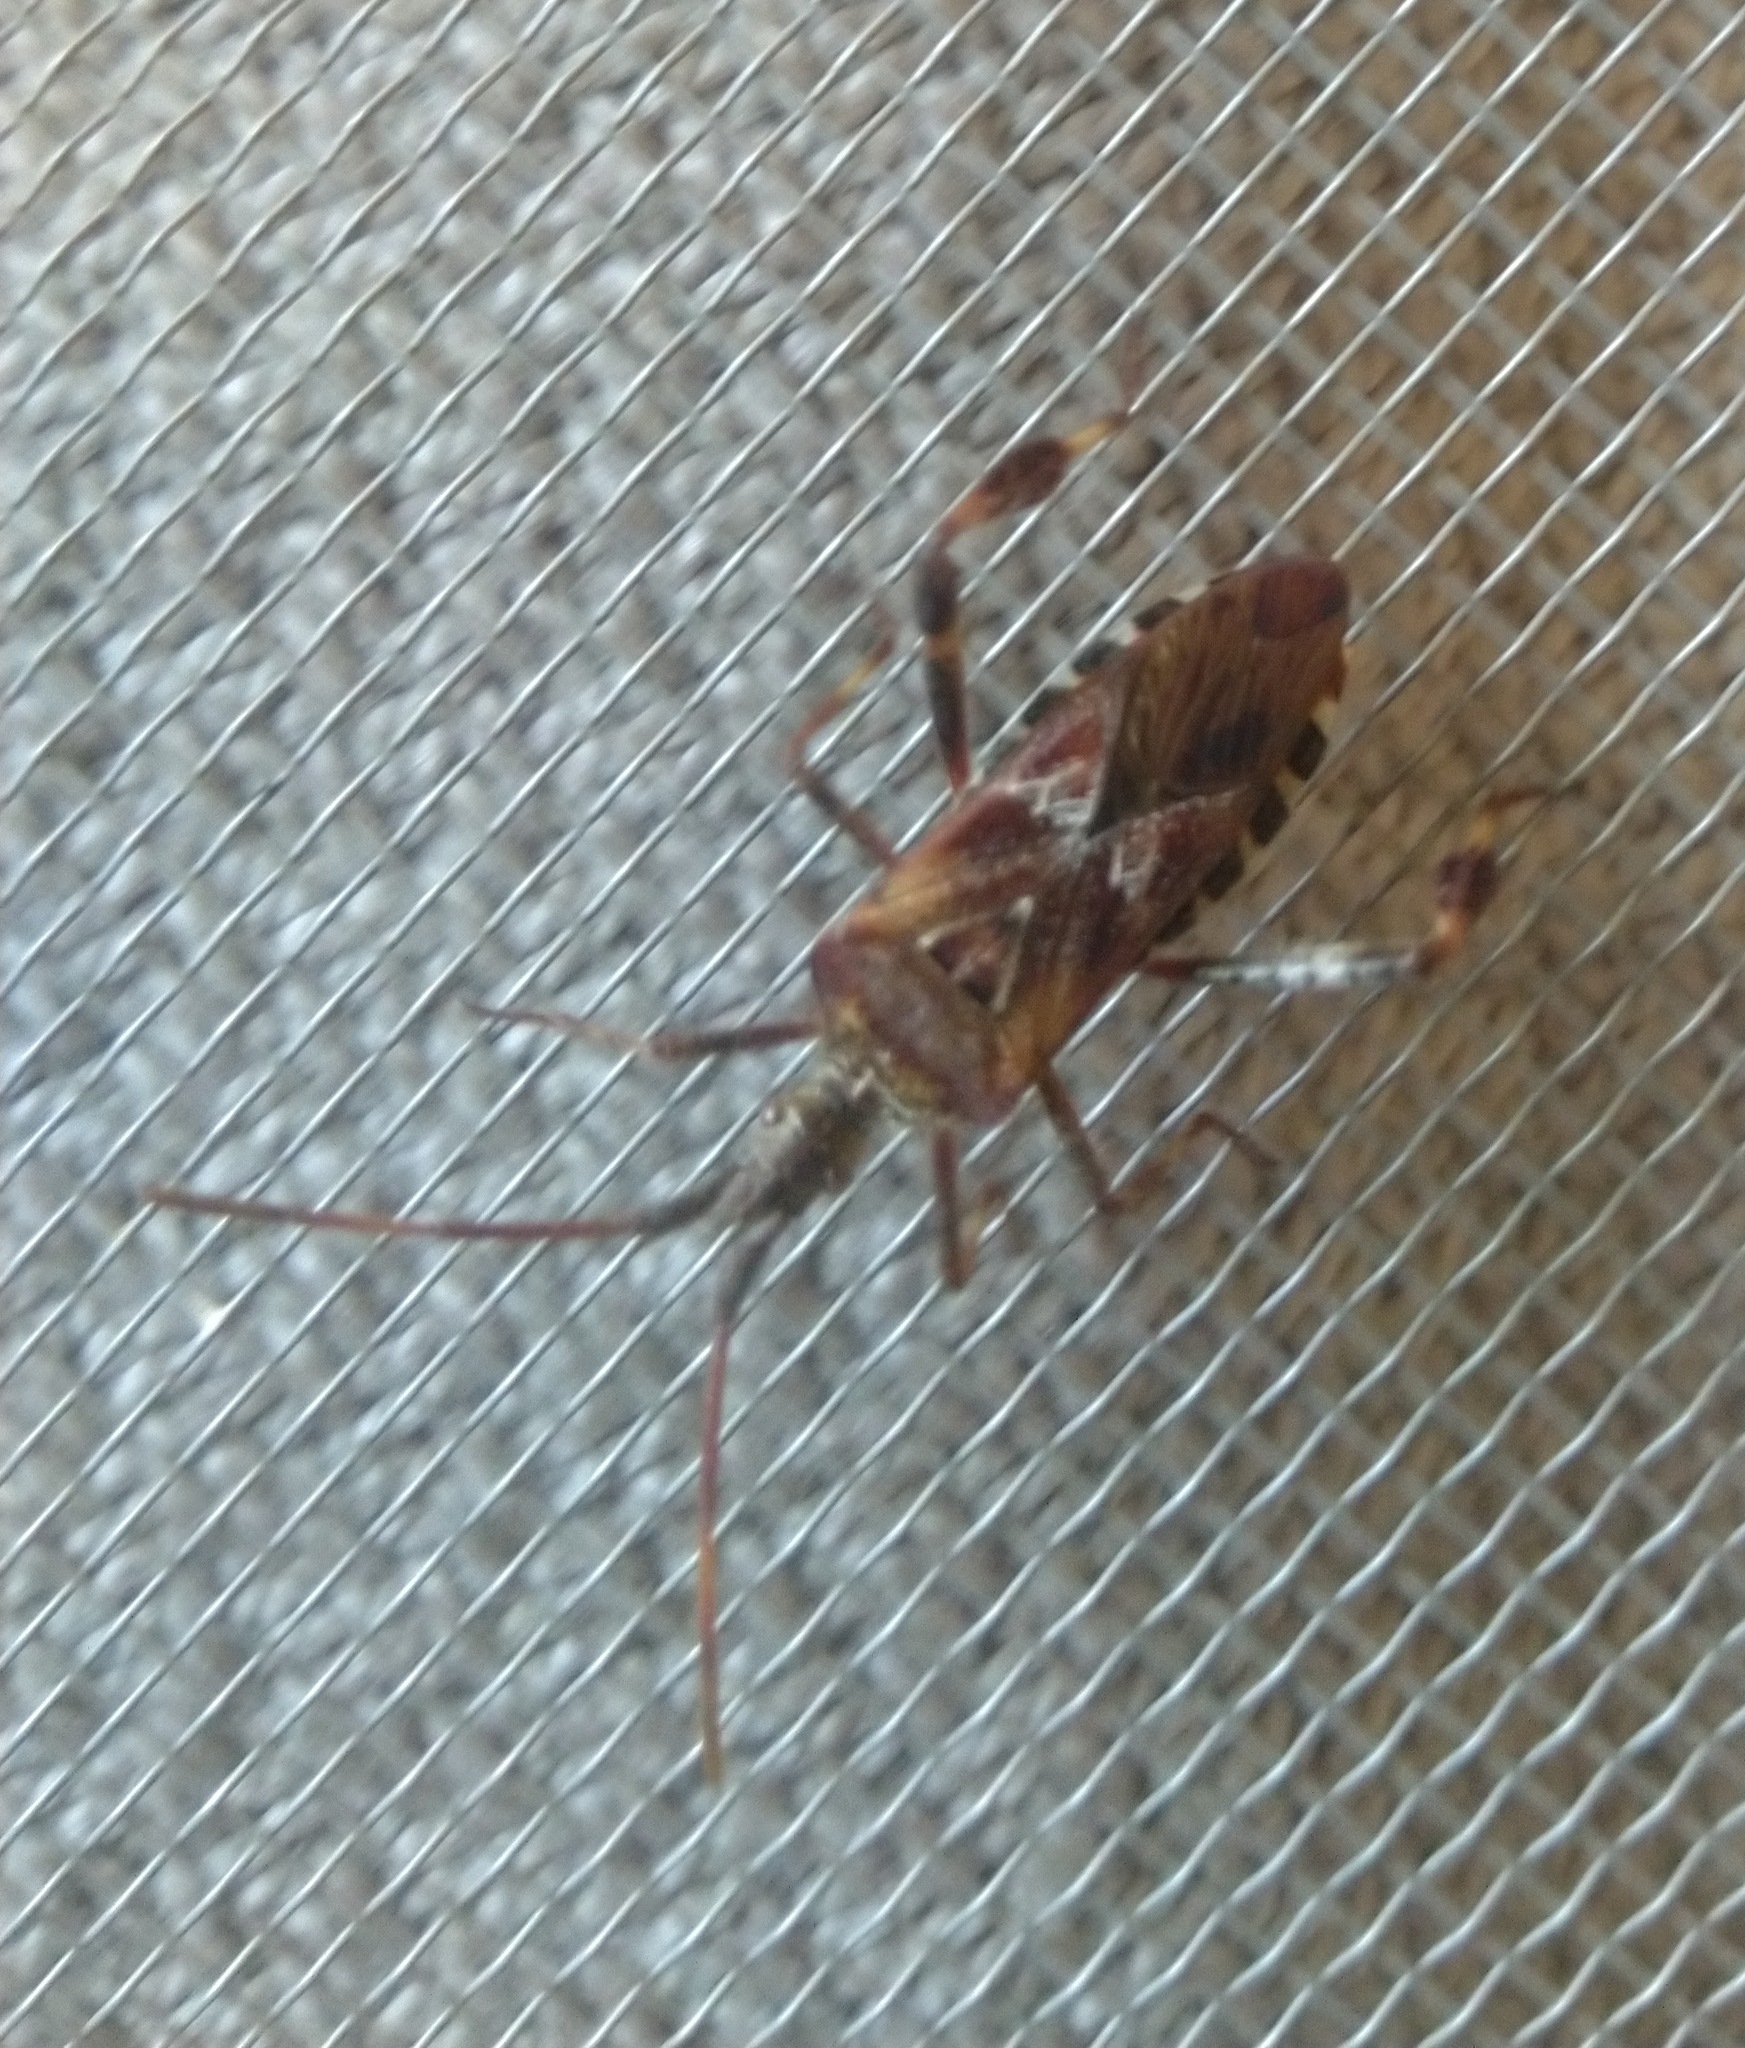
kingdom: Animalia
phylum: Arthropoda
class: Insecta
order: Hemiptera
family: Coreidae
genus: Leptoglossus
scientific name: Leptoglossus occidentalis
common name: Western conifer-seed bug
